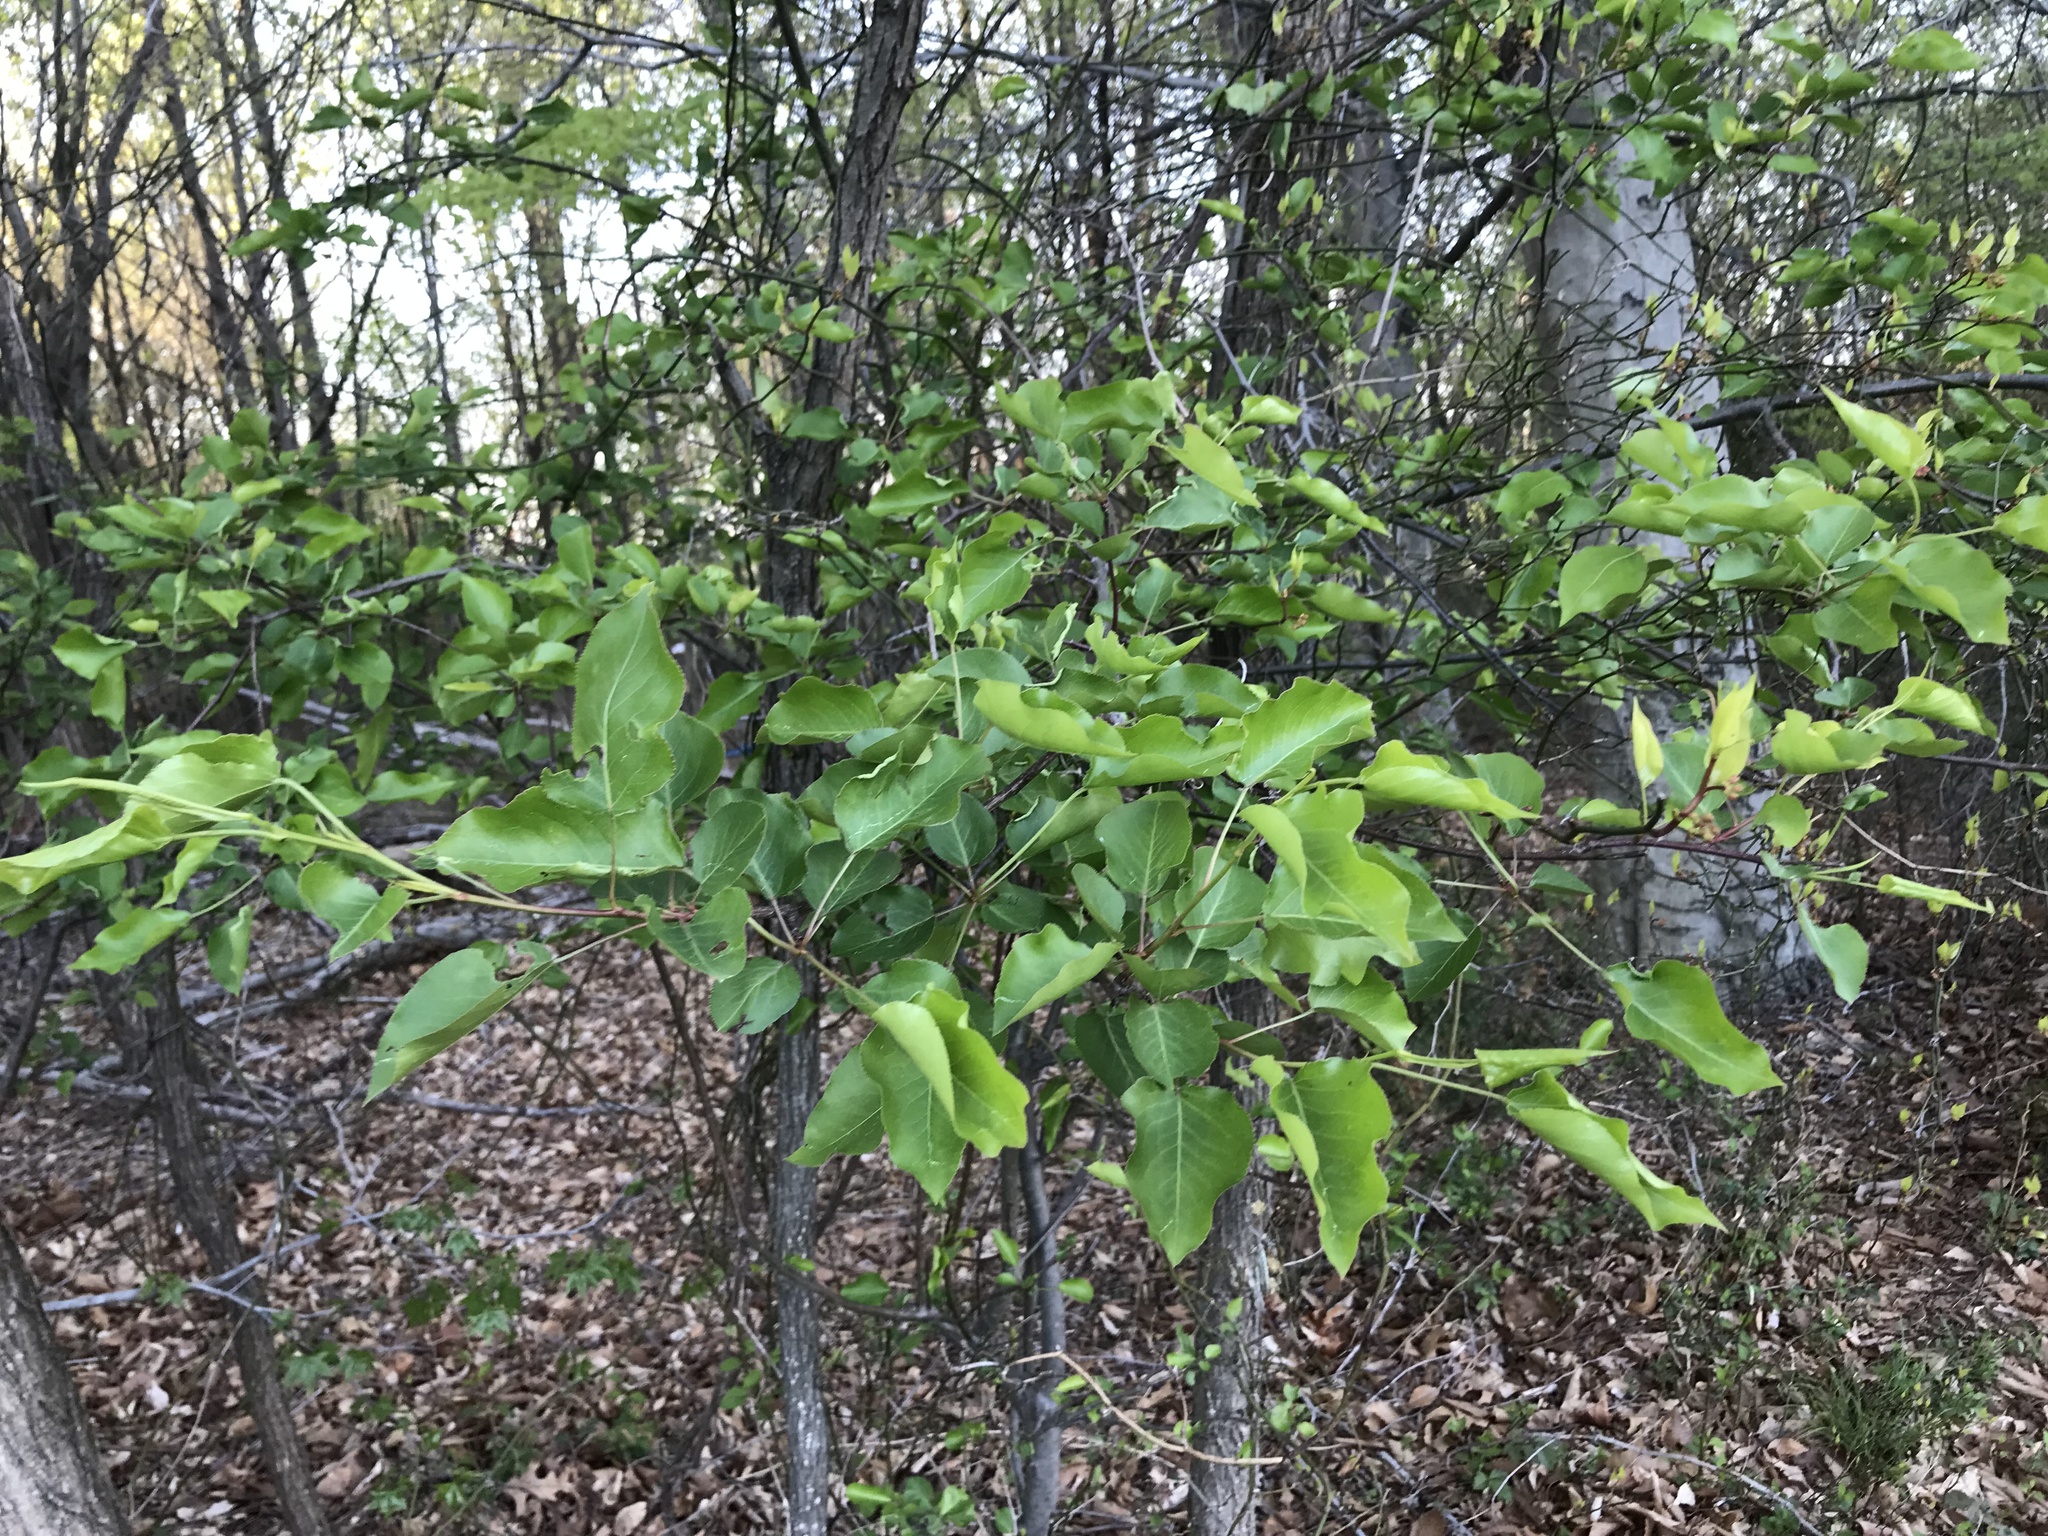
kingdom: Plantae
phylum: Tracheophyta
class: Magnoliopsida
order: Rosales
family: Rosaceae
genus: Pyrus
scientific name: Pyrus calleryana
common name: Callery pear
